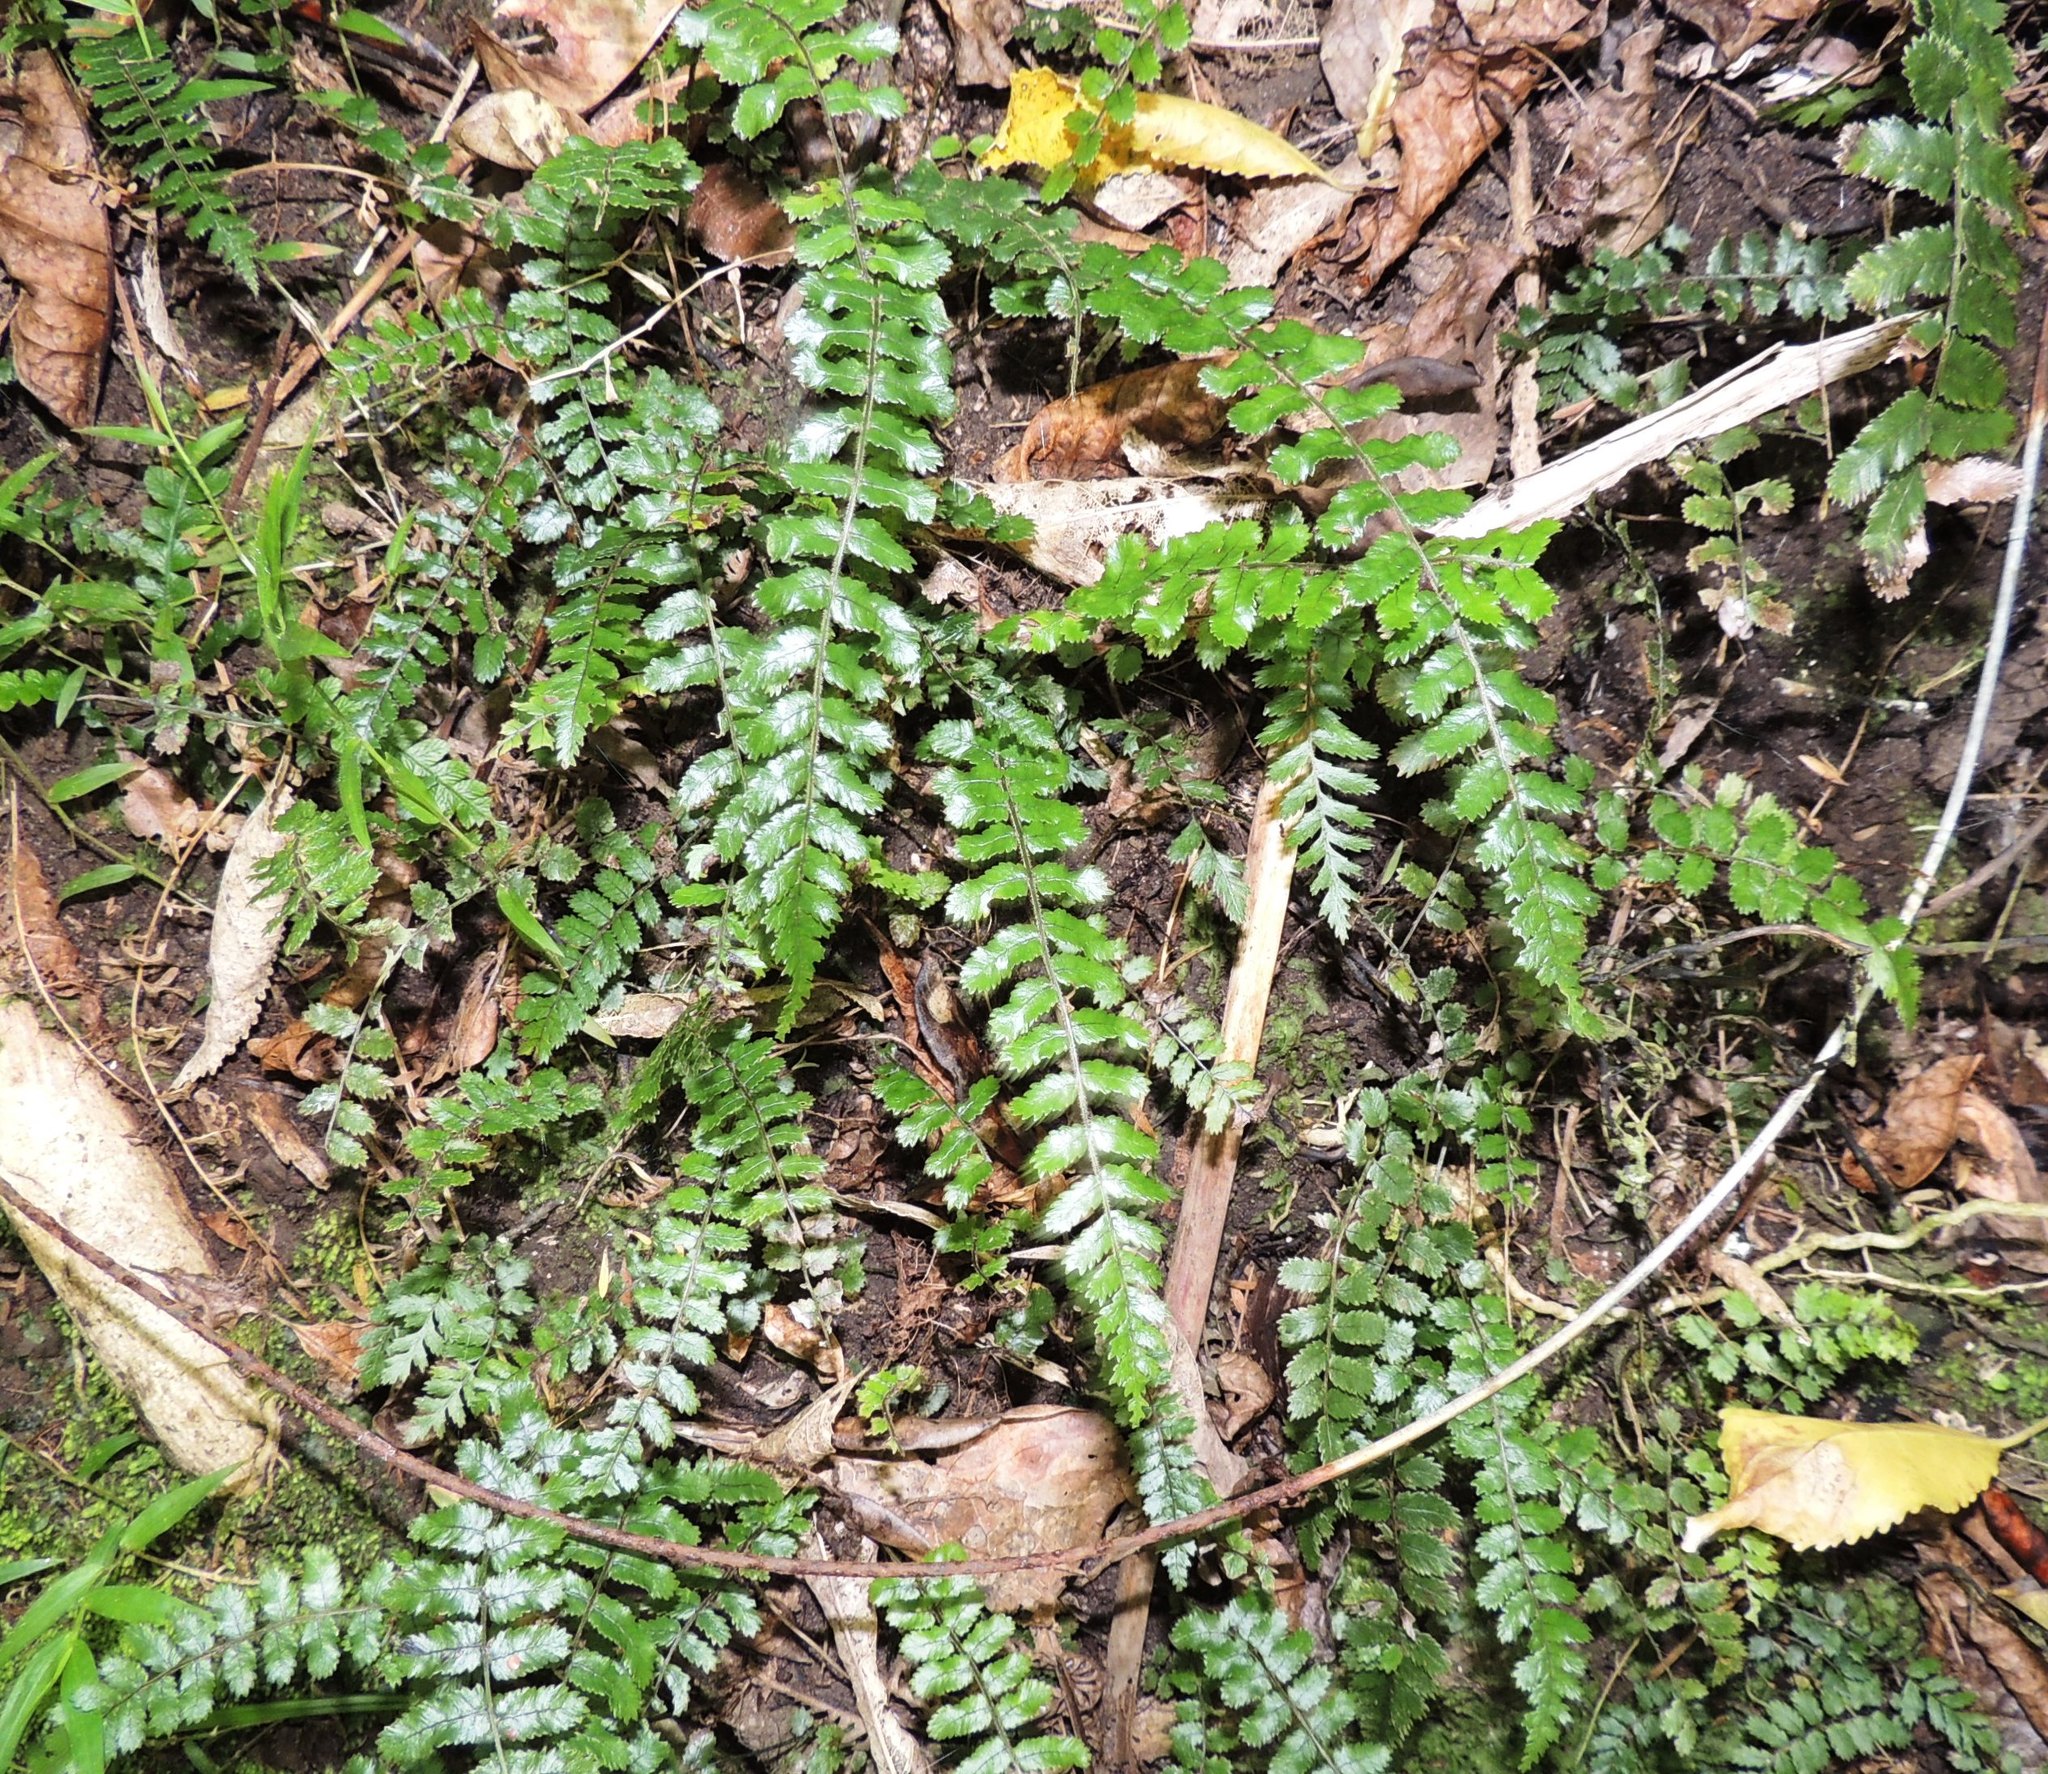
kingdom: Plantae
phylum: Tracheophyta
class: Polypodiopsida
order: Polypodiales
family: Blechnaceae
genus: Icarus
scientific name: Icarus filiformis
